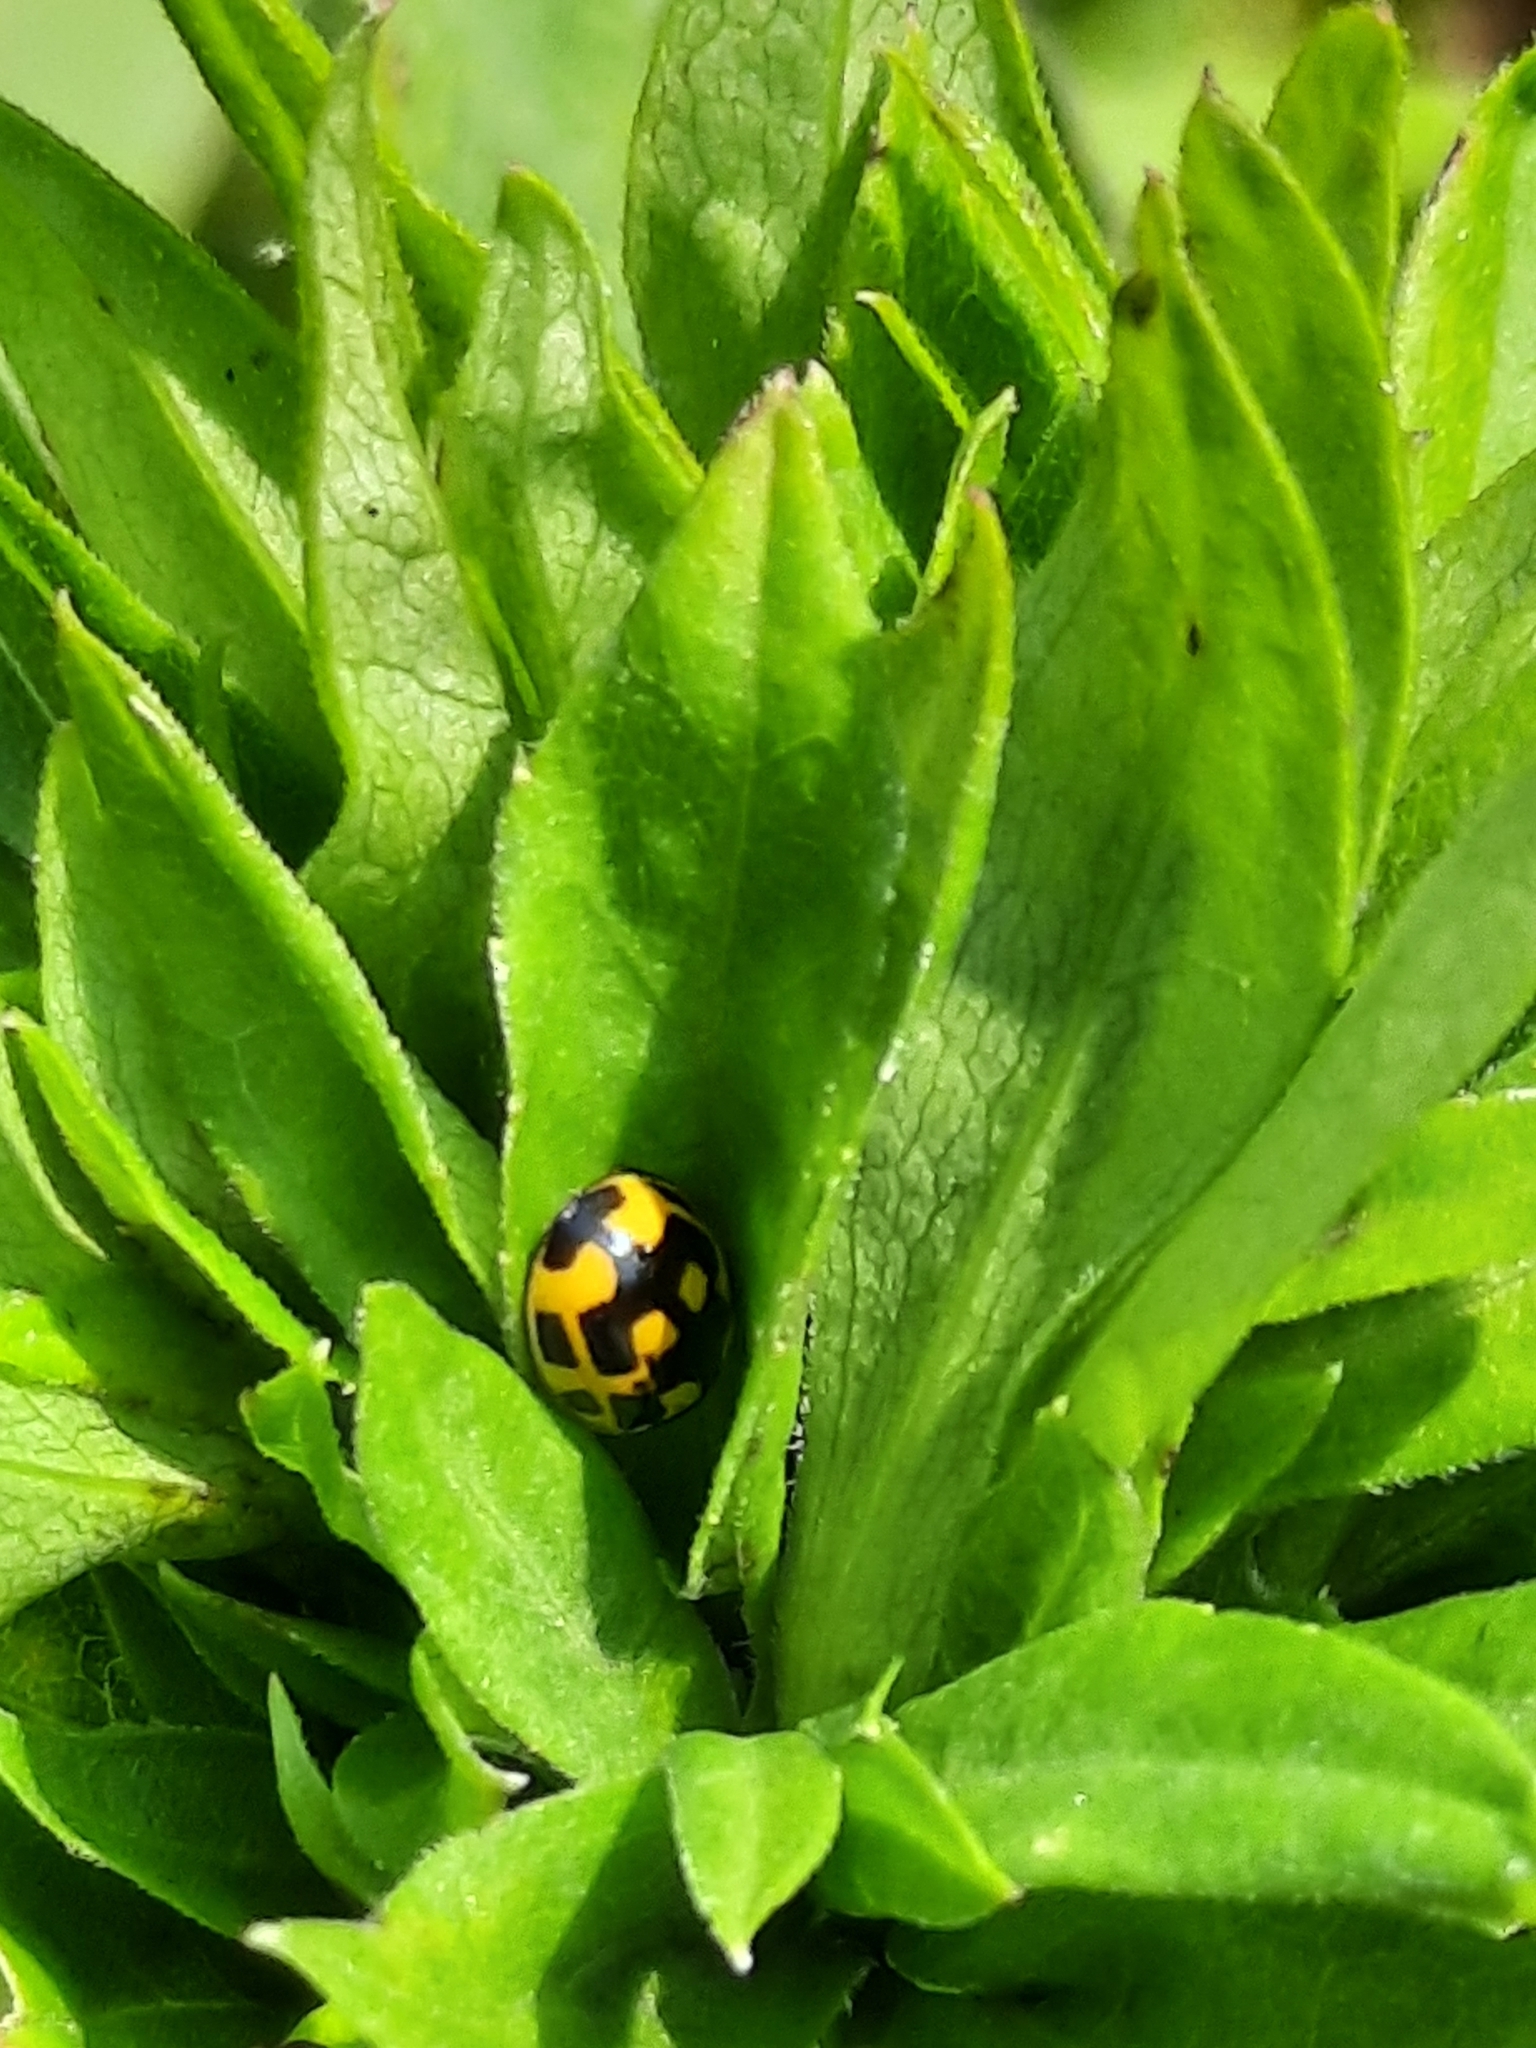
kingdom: Animalia
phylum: Arthropoda
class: Insecta
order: Coleoptera
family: Coccinellidae
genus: Propylaea
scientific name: Propylaea quatuordecimpunctata
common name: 14-spotted ladybird beetle
